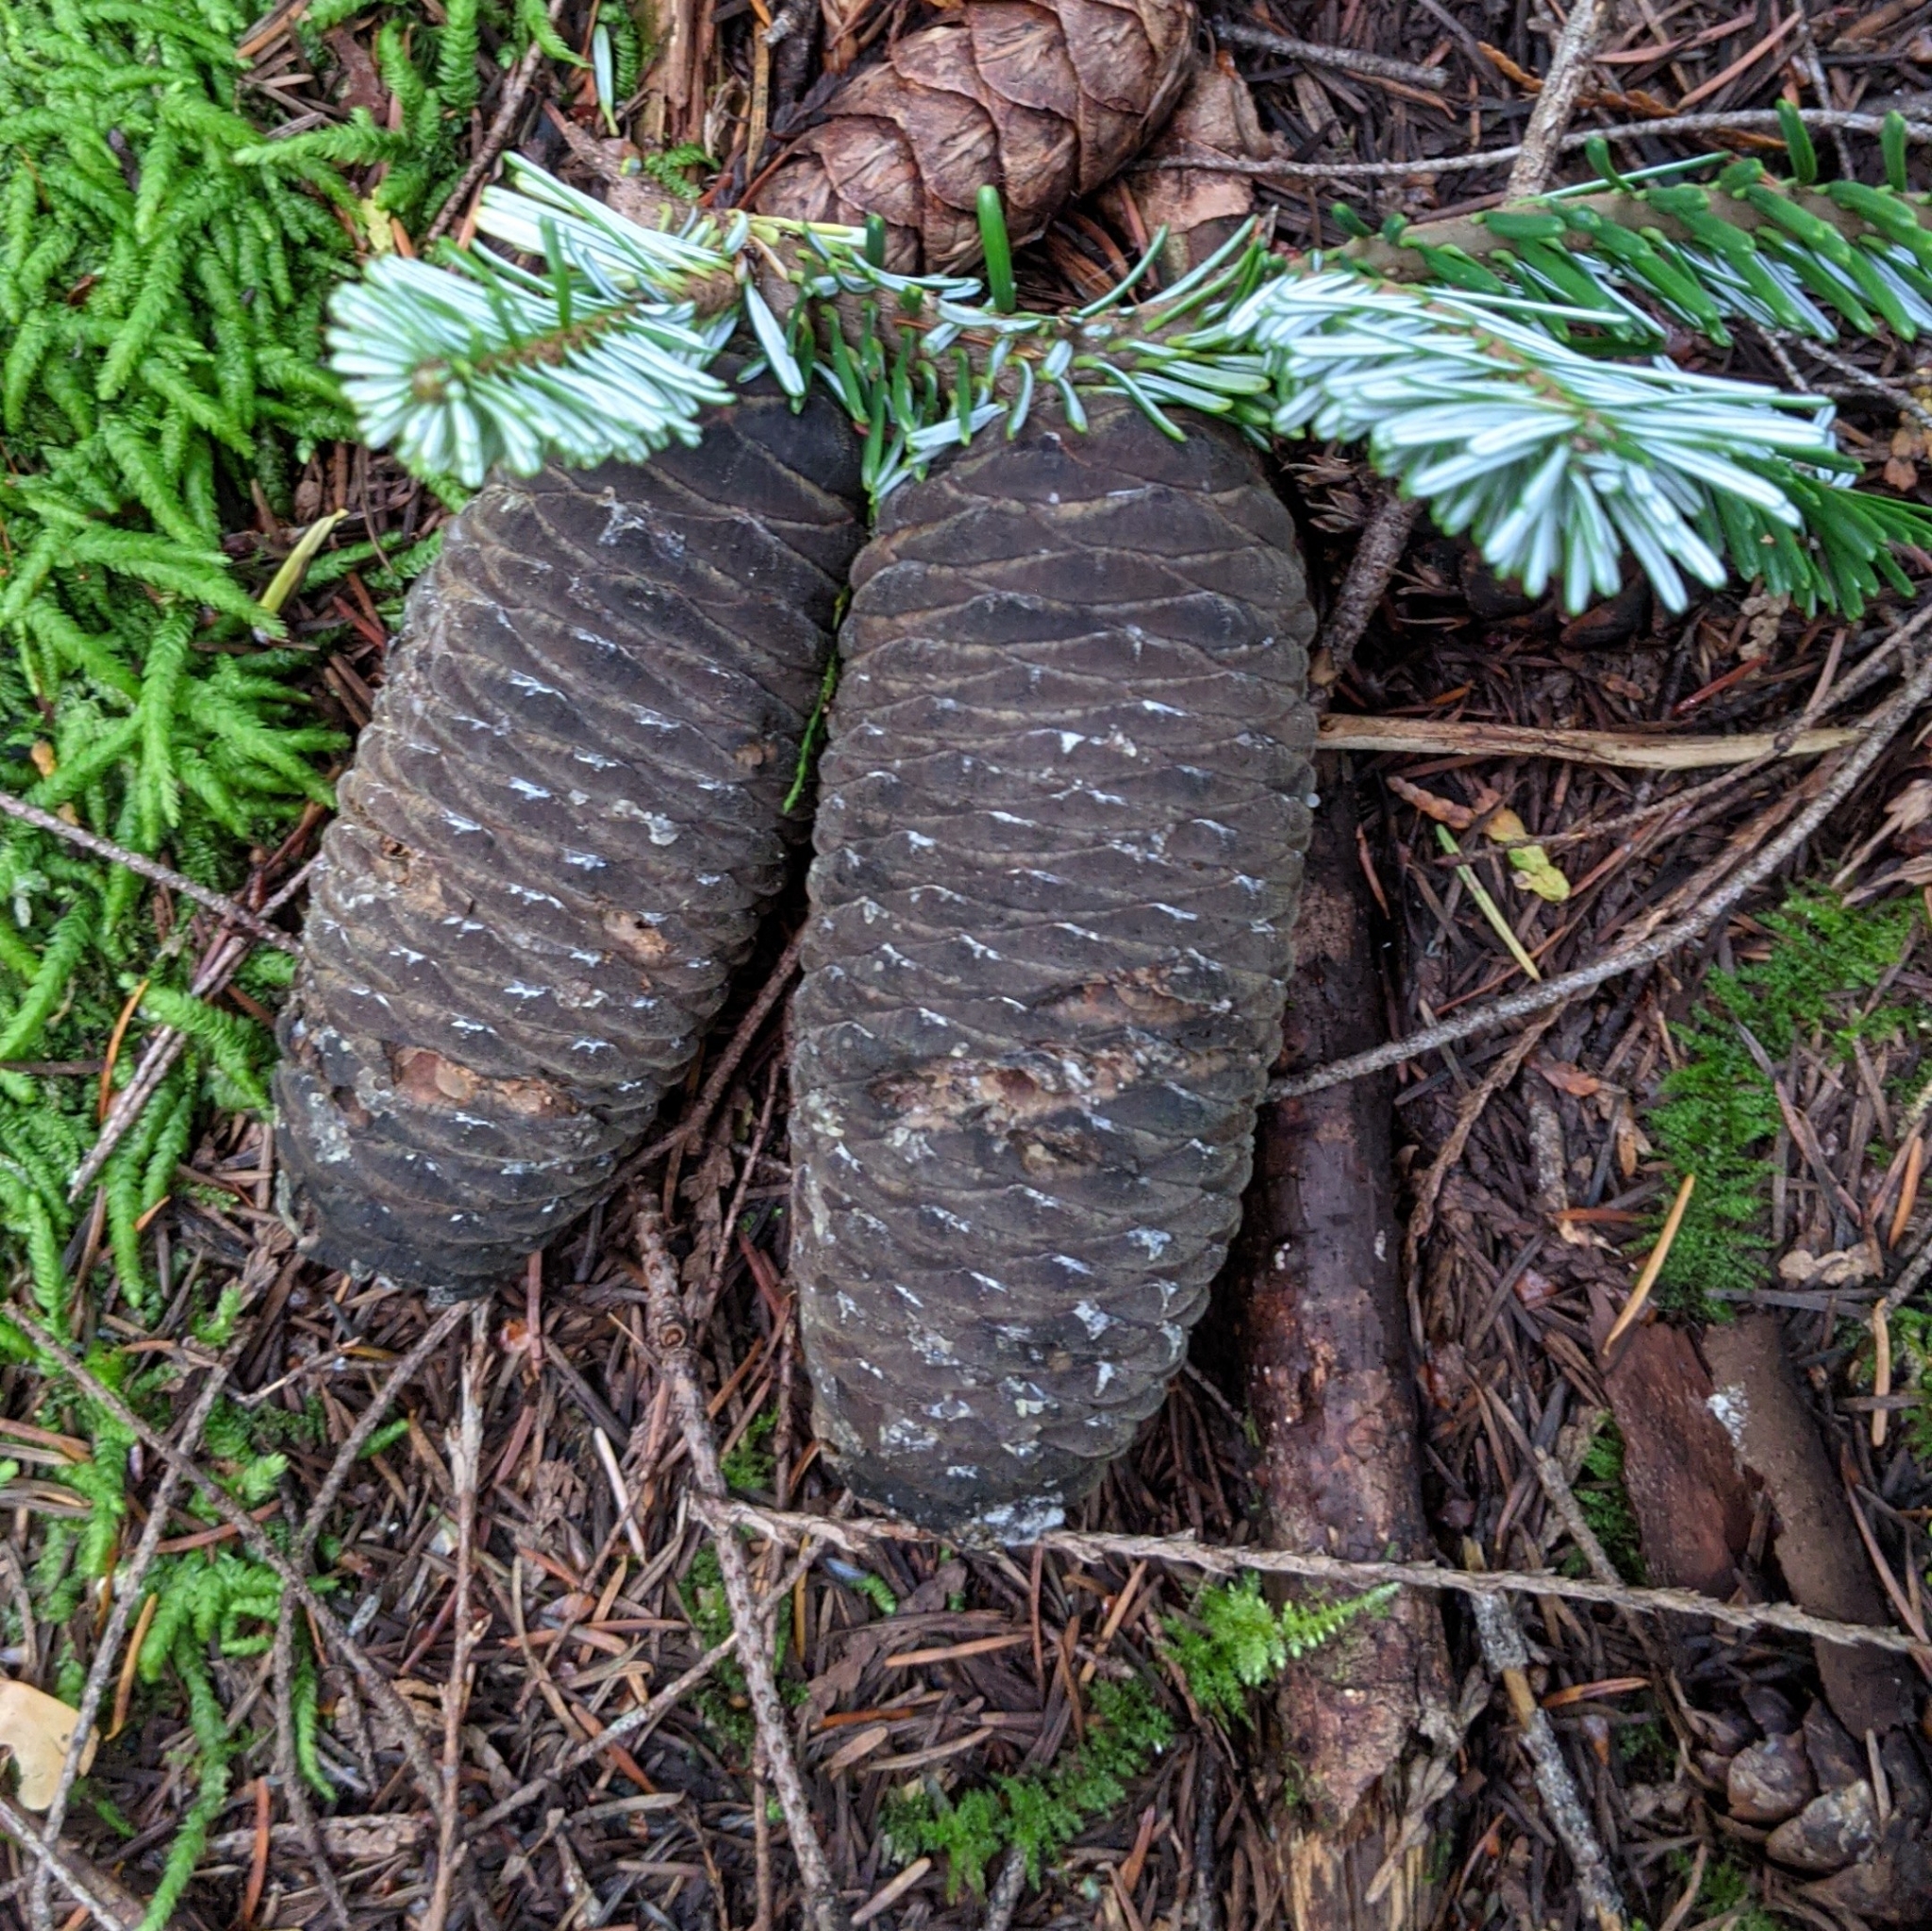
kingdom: Plantae
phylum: Tracheophyta
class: Pinopsida
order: Pinales
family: Pinaceae
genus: Abies
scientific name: Abies amabilis
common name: Pacific silver fir
